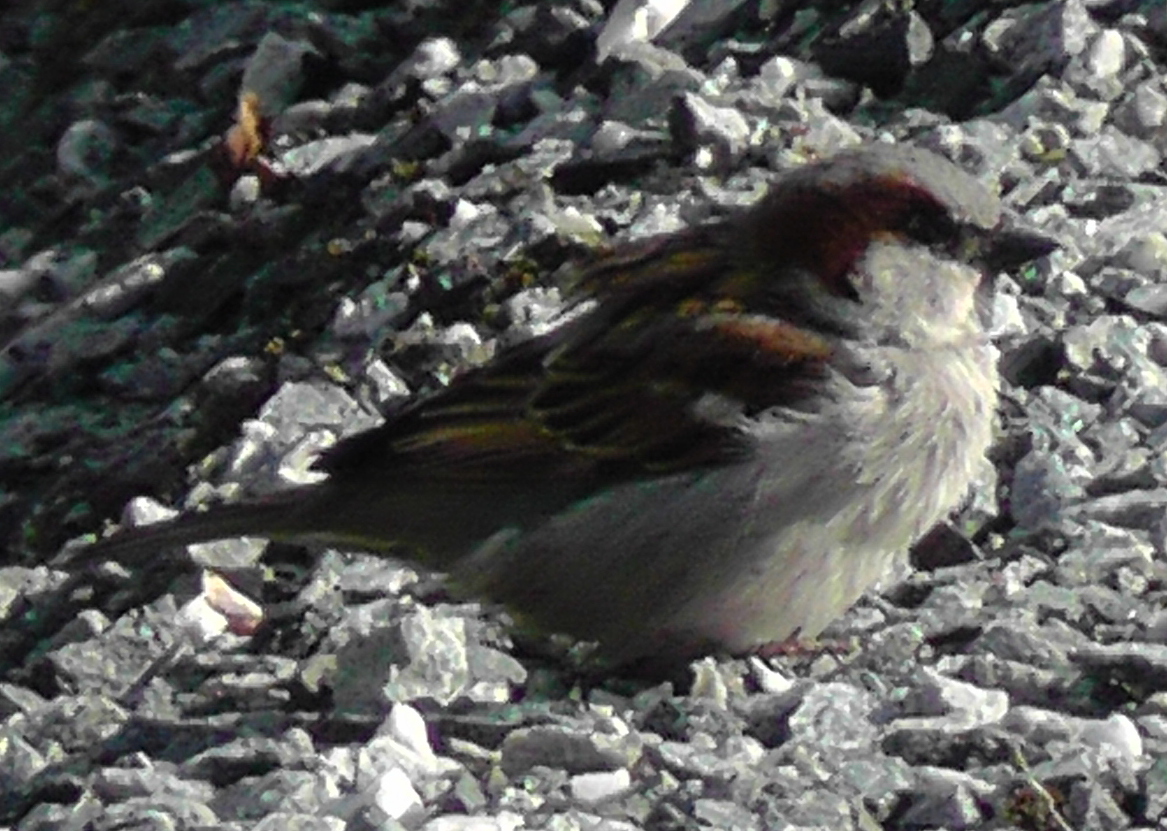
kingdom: Animalia
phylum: Chordata
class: Aves
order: Passeriformes
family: Passeridae
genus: Passer
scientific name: Passer domesticus
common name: House sparrow
